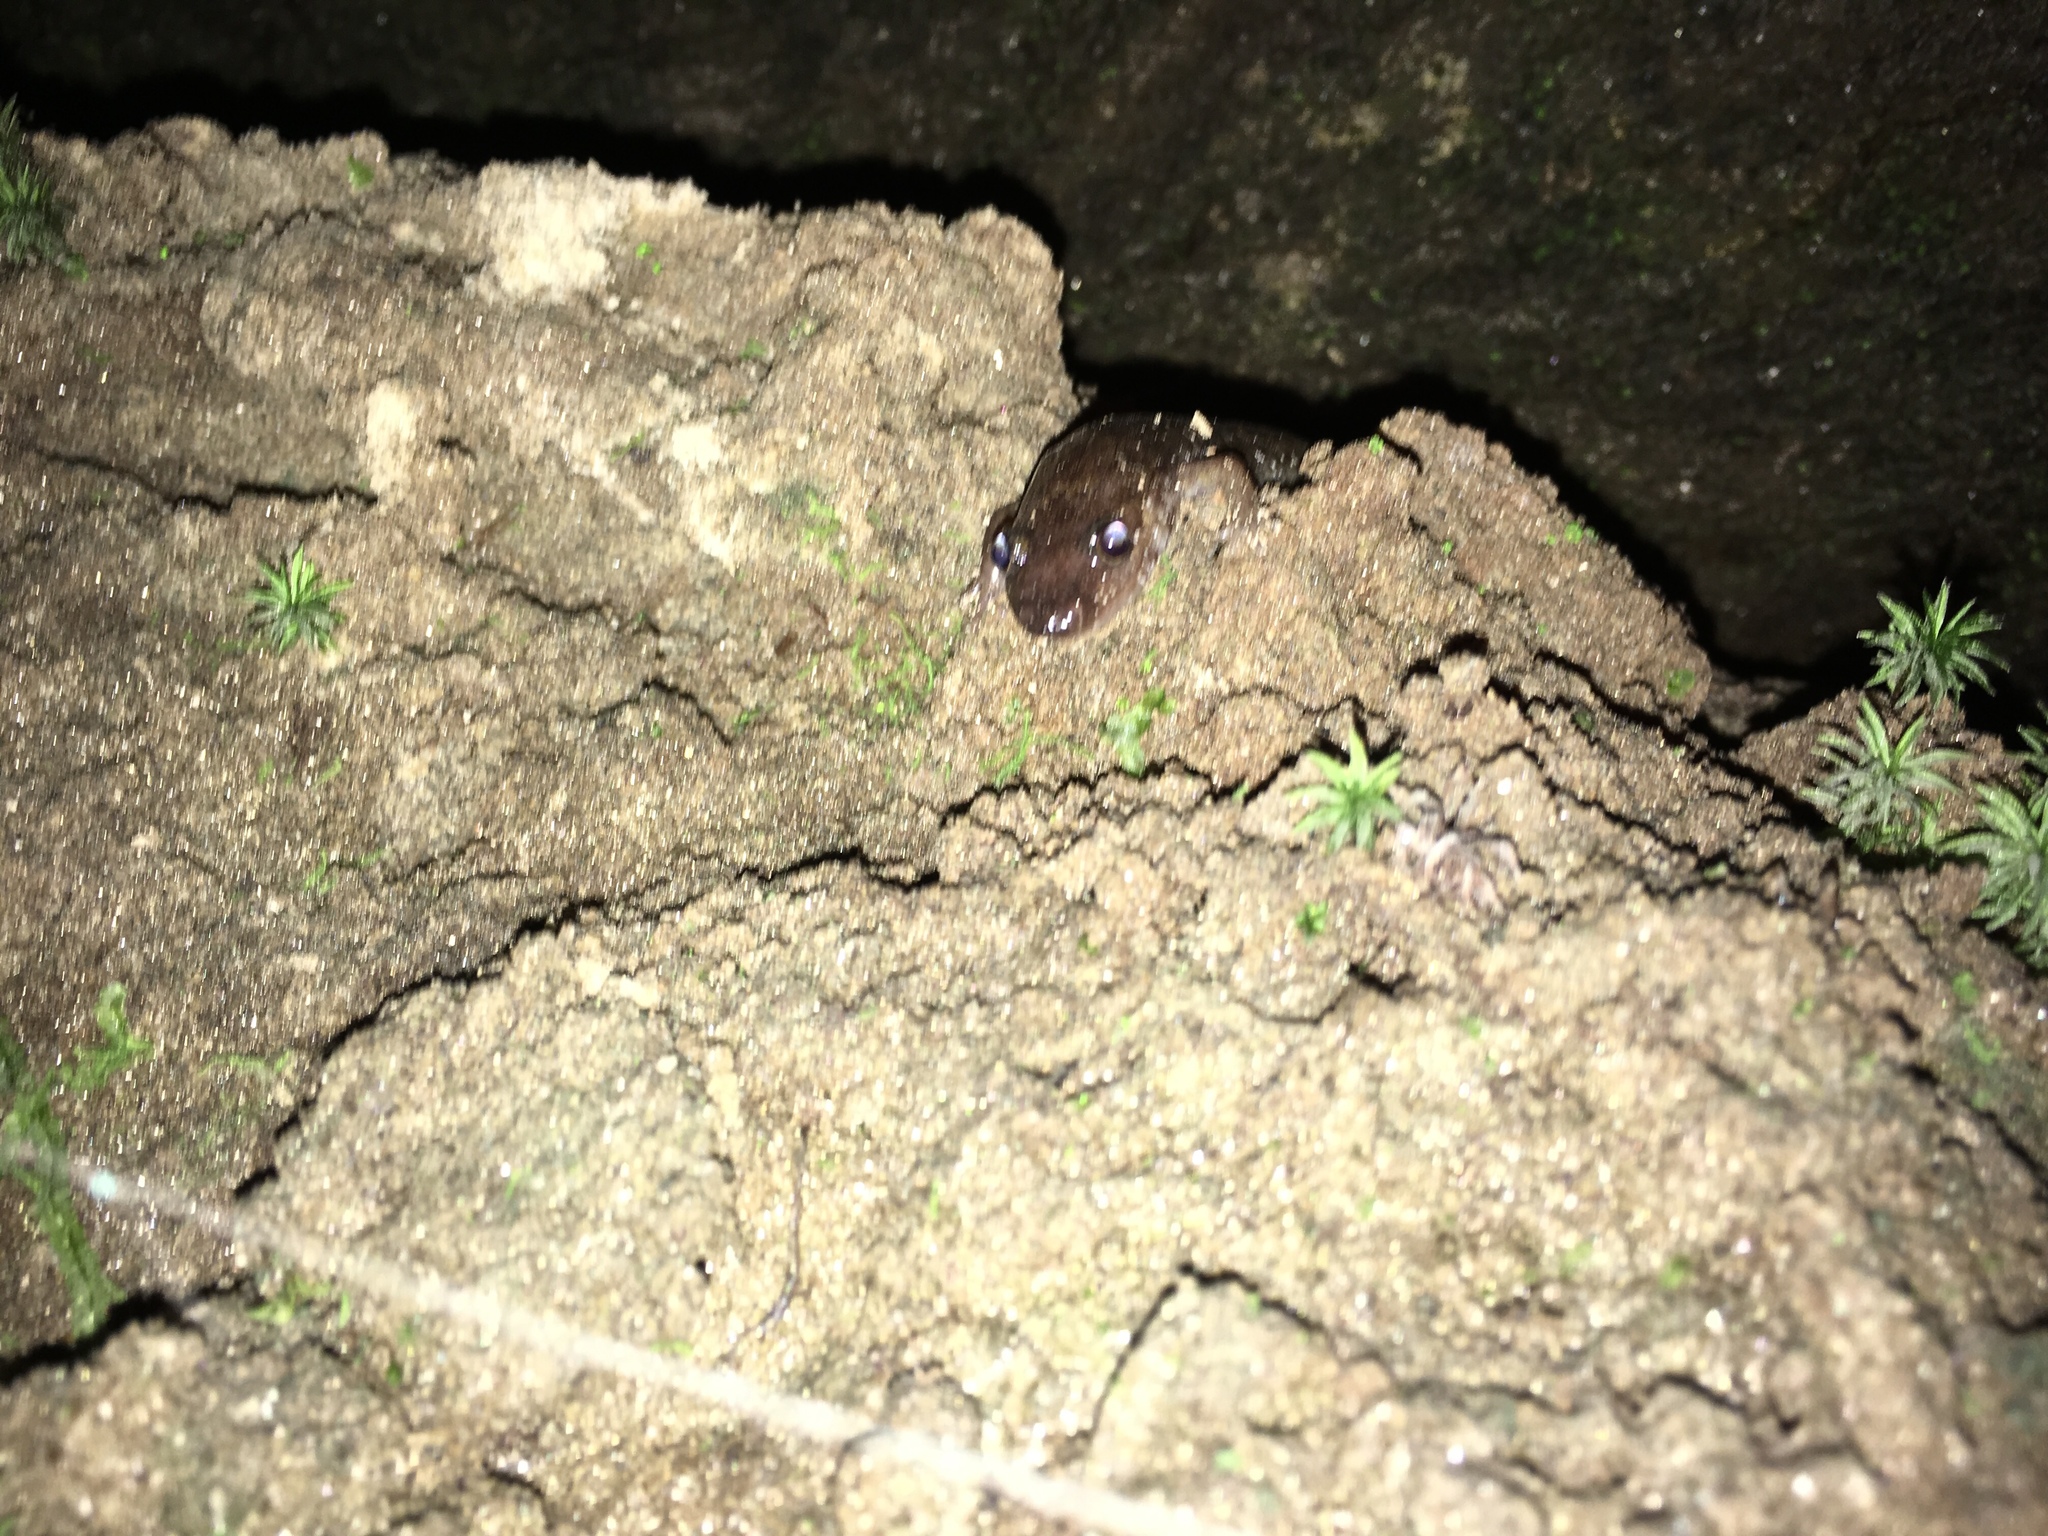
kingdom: Animalia
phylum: Chordata
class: Amphibia
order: Caudata
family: Plethodontidae
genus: Desmognathus
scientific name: Desmognathus monticola
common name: Seal salamander
